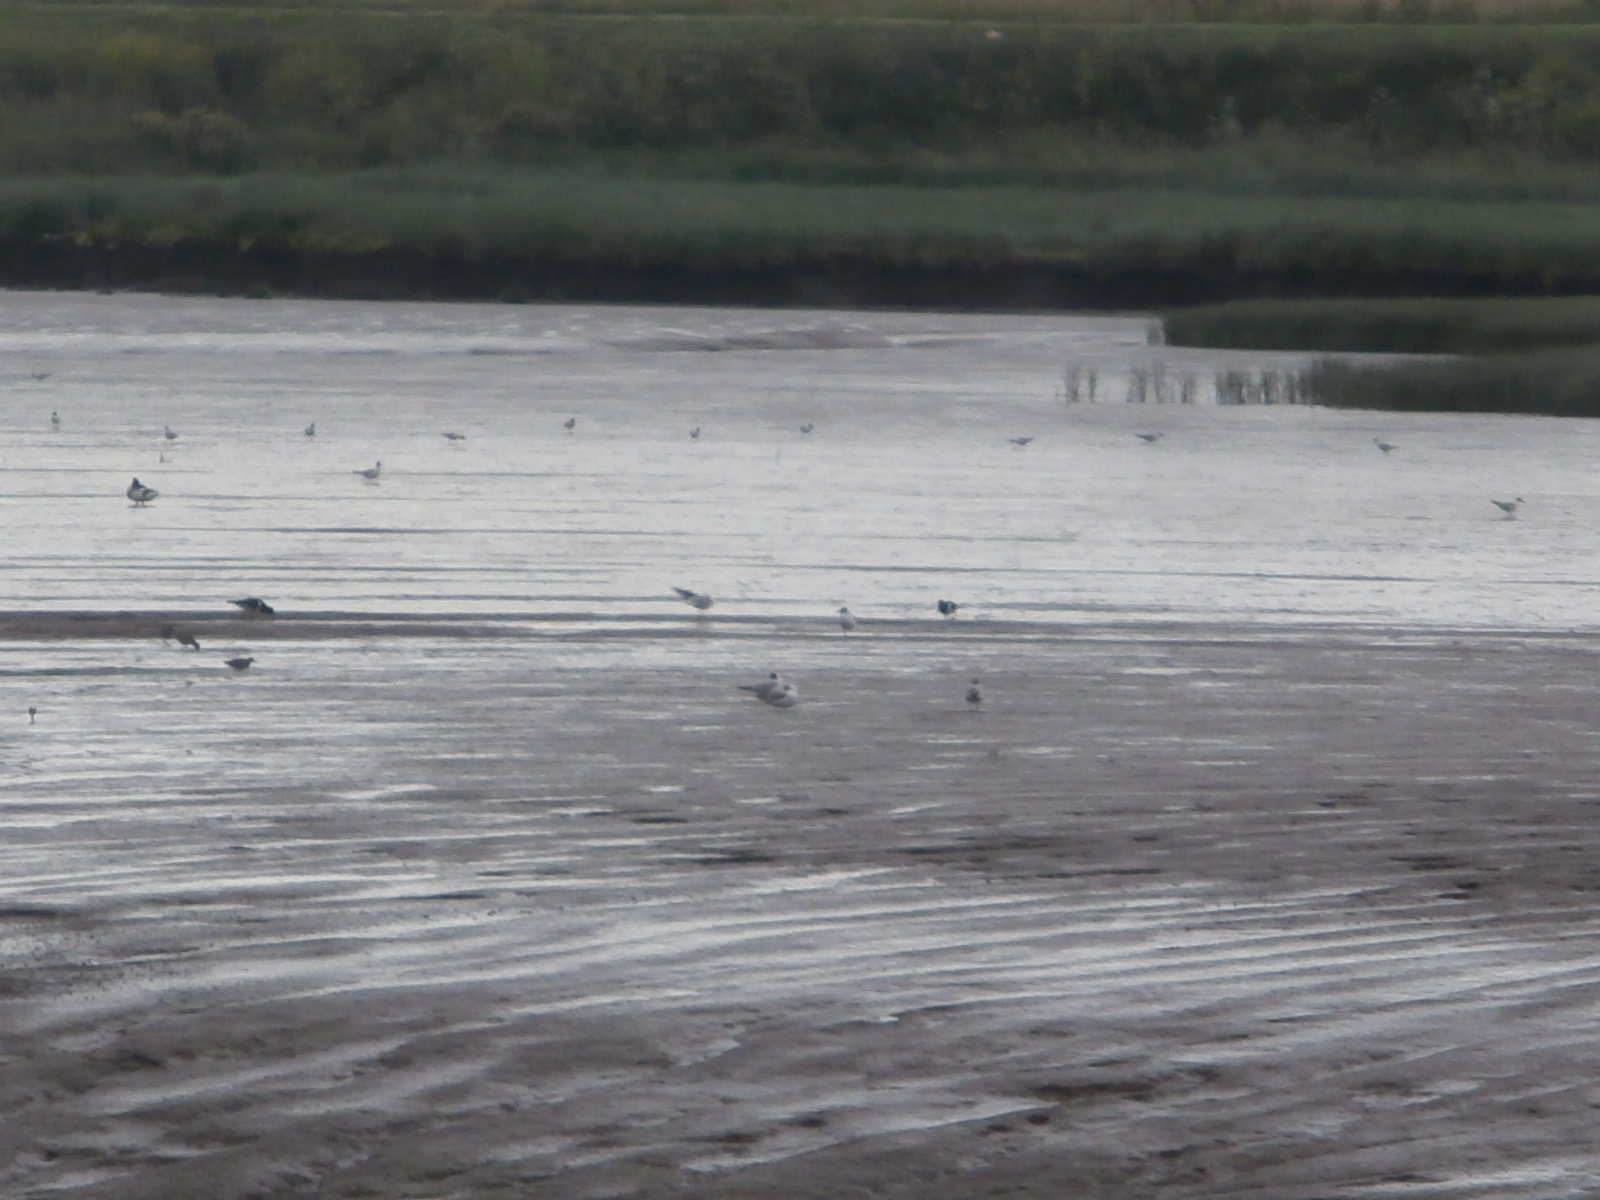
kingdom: Animalia
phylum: Chordata
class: Aves
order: Charadriiformes
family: Haematopodidae
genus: Haematopus
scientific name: Haematopus ostralegus
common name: Eurasian oystercatcher
